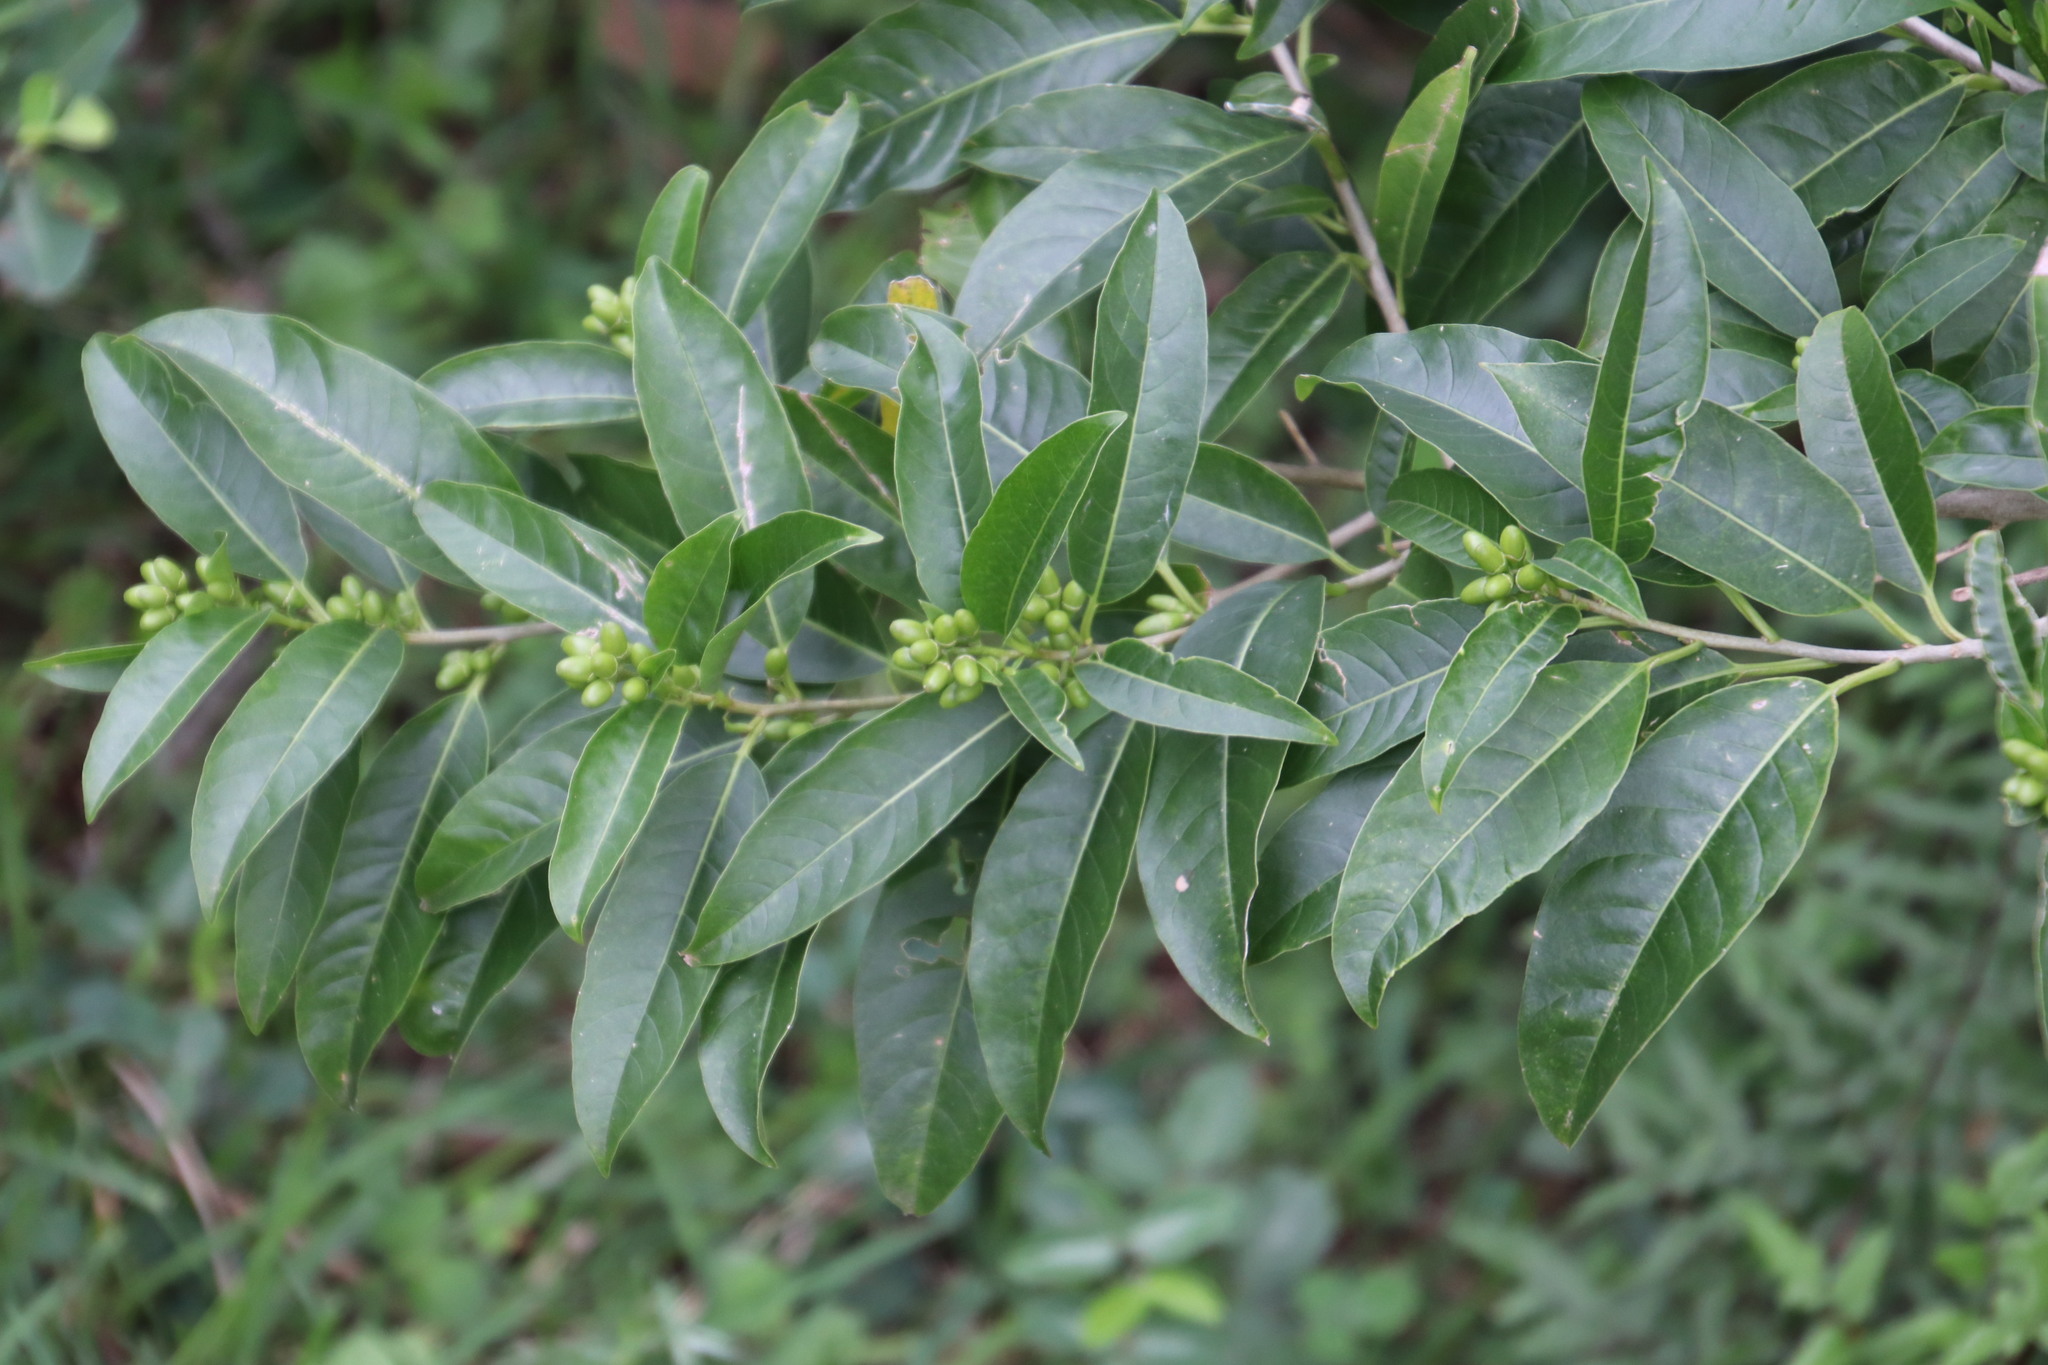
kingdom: Plantae
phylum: Tracheophyta
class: Magnoliopsida
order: Solanales
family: Solanaceae
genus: Cestrum
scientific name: Cestrum laevigatum
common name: Inkberry
